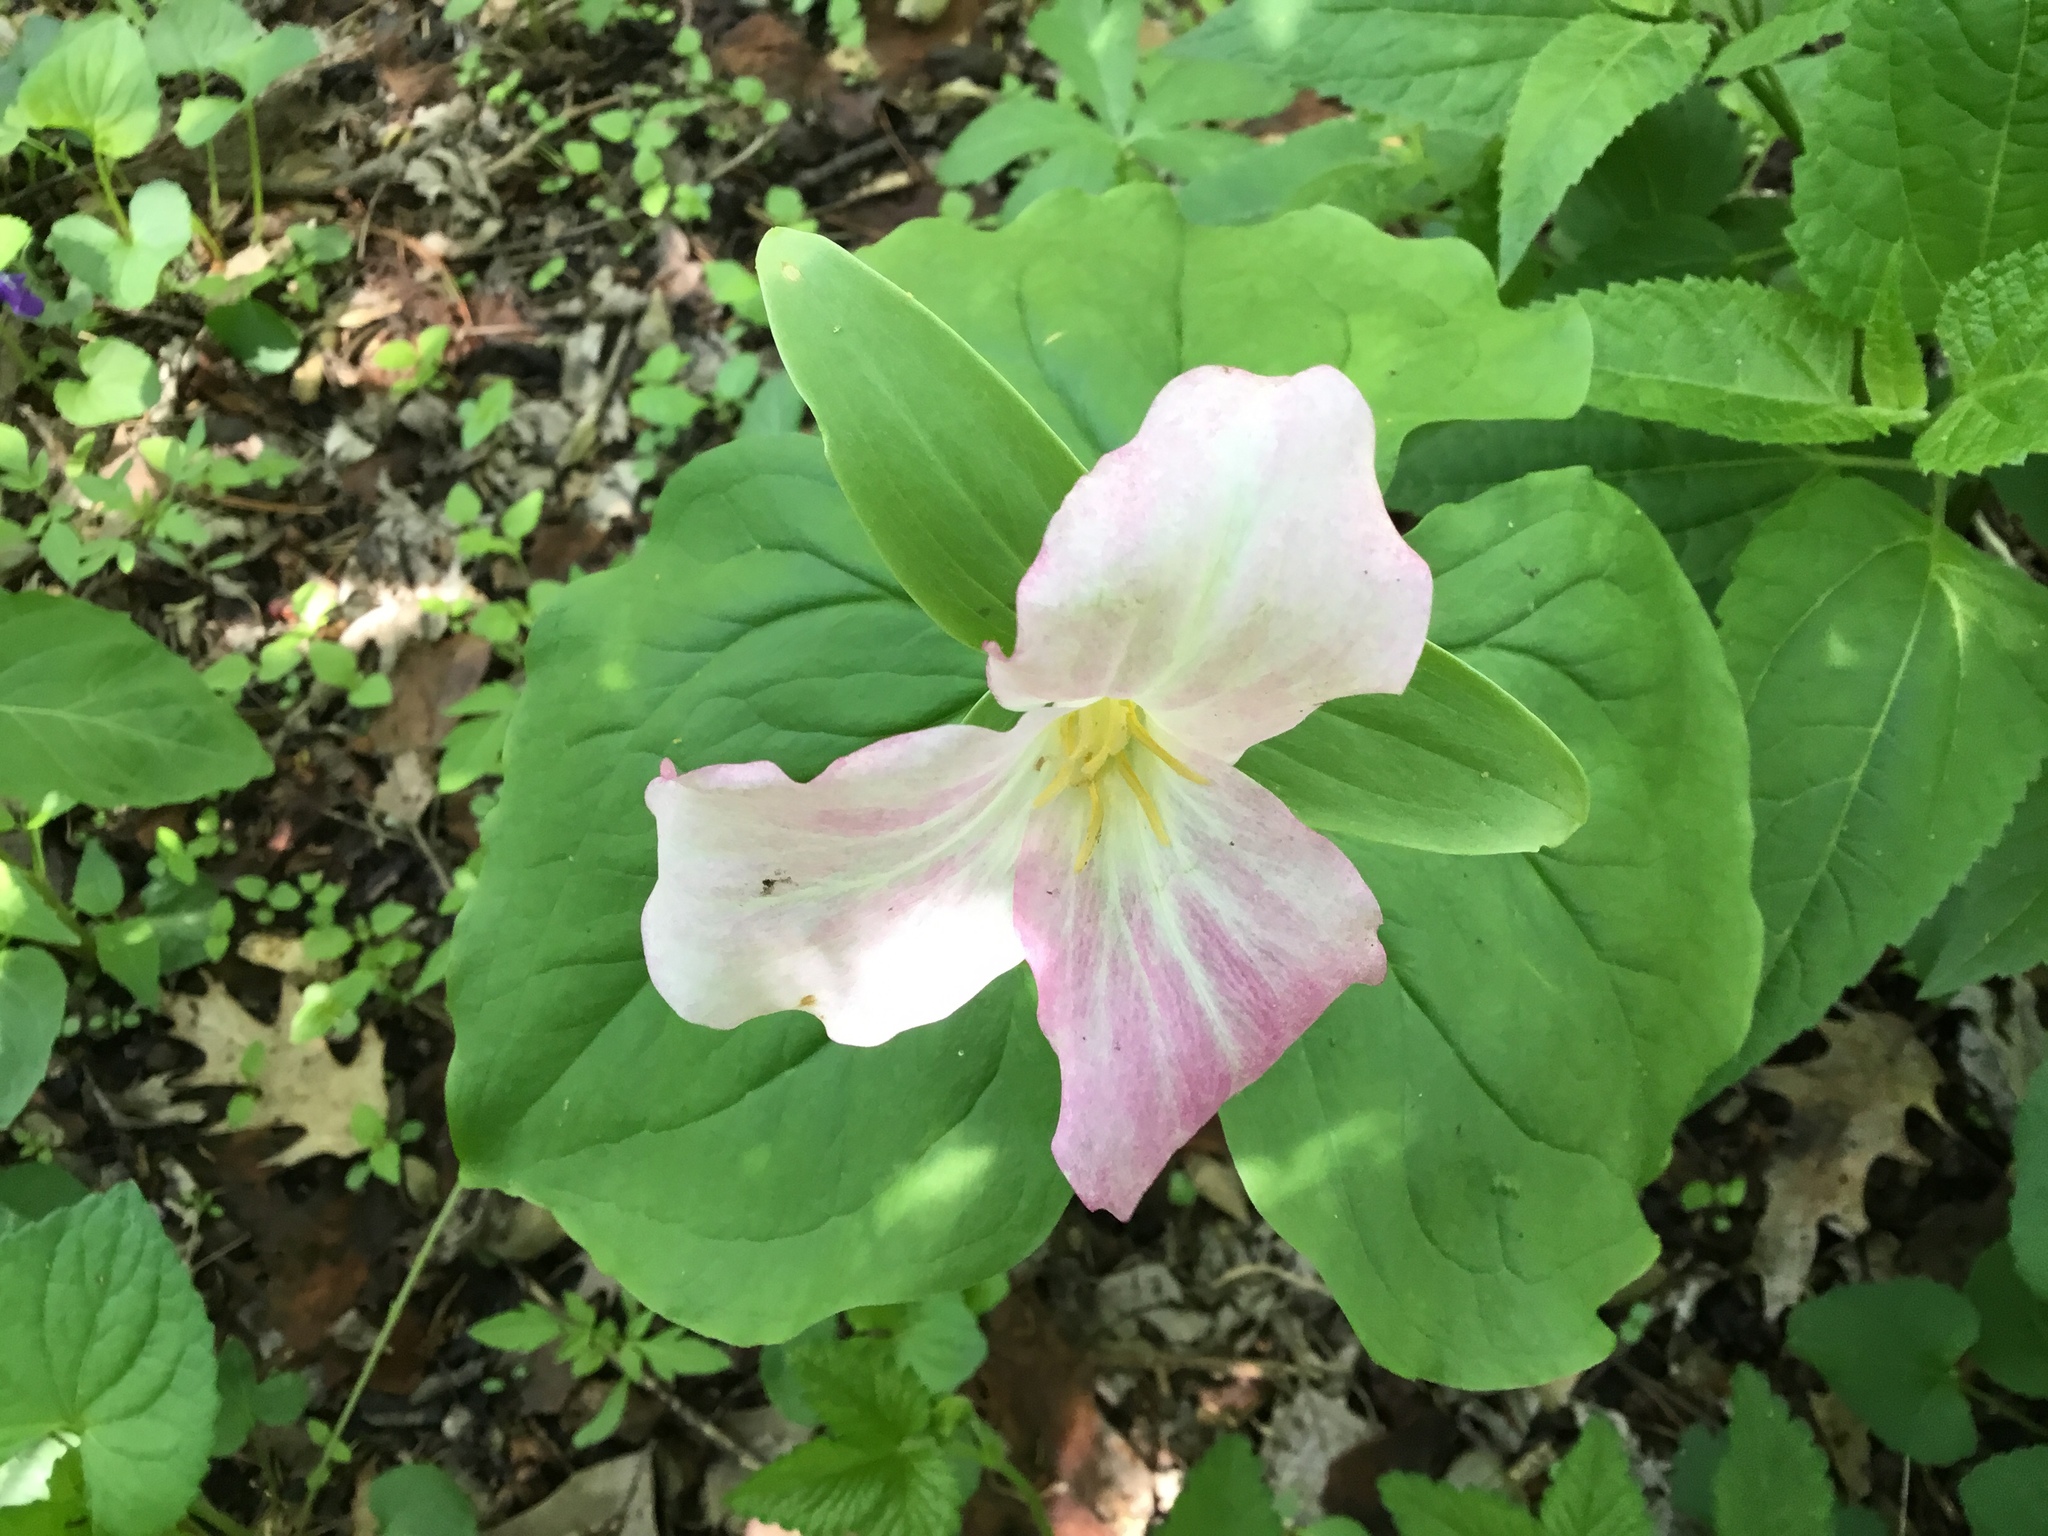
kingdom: Plantae
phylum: Tracheophyta
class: Liliopsida
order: Liliales
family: Melanthiaceae
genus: Trillium
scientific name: Trillium grandiflorum
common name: Great white trillium
